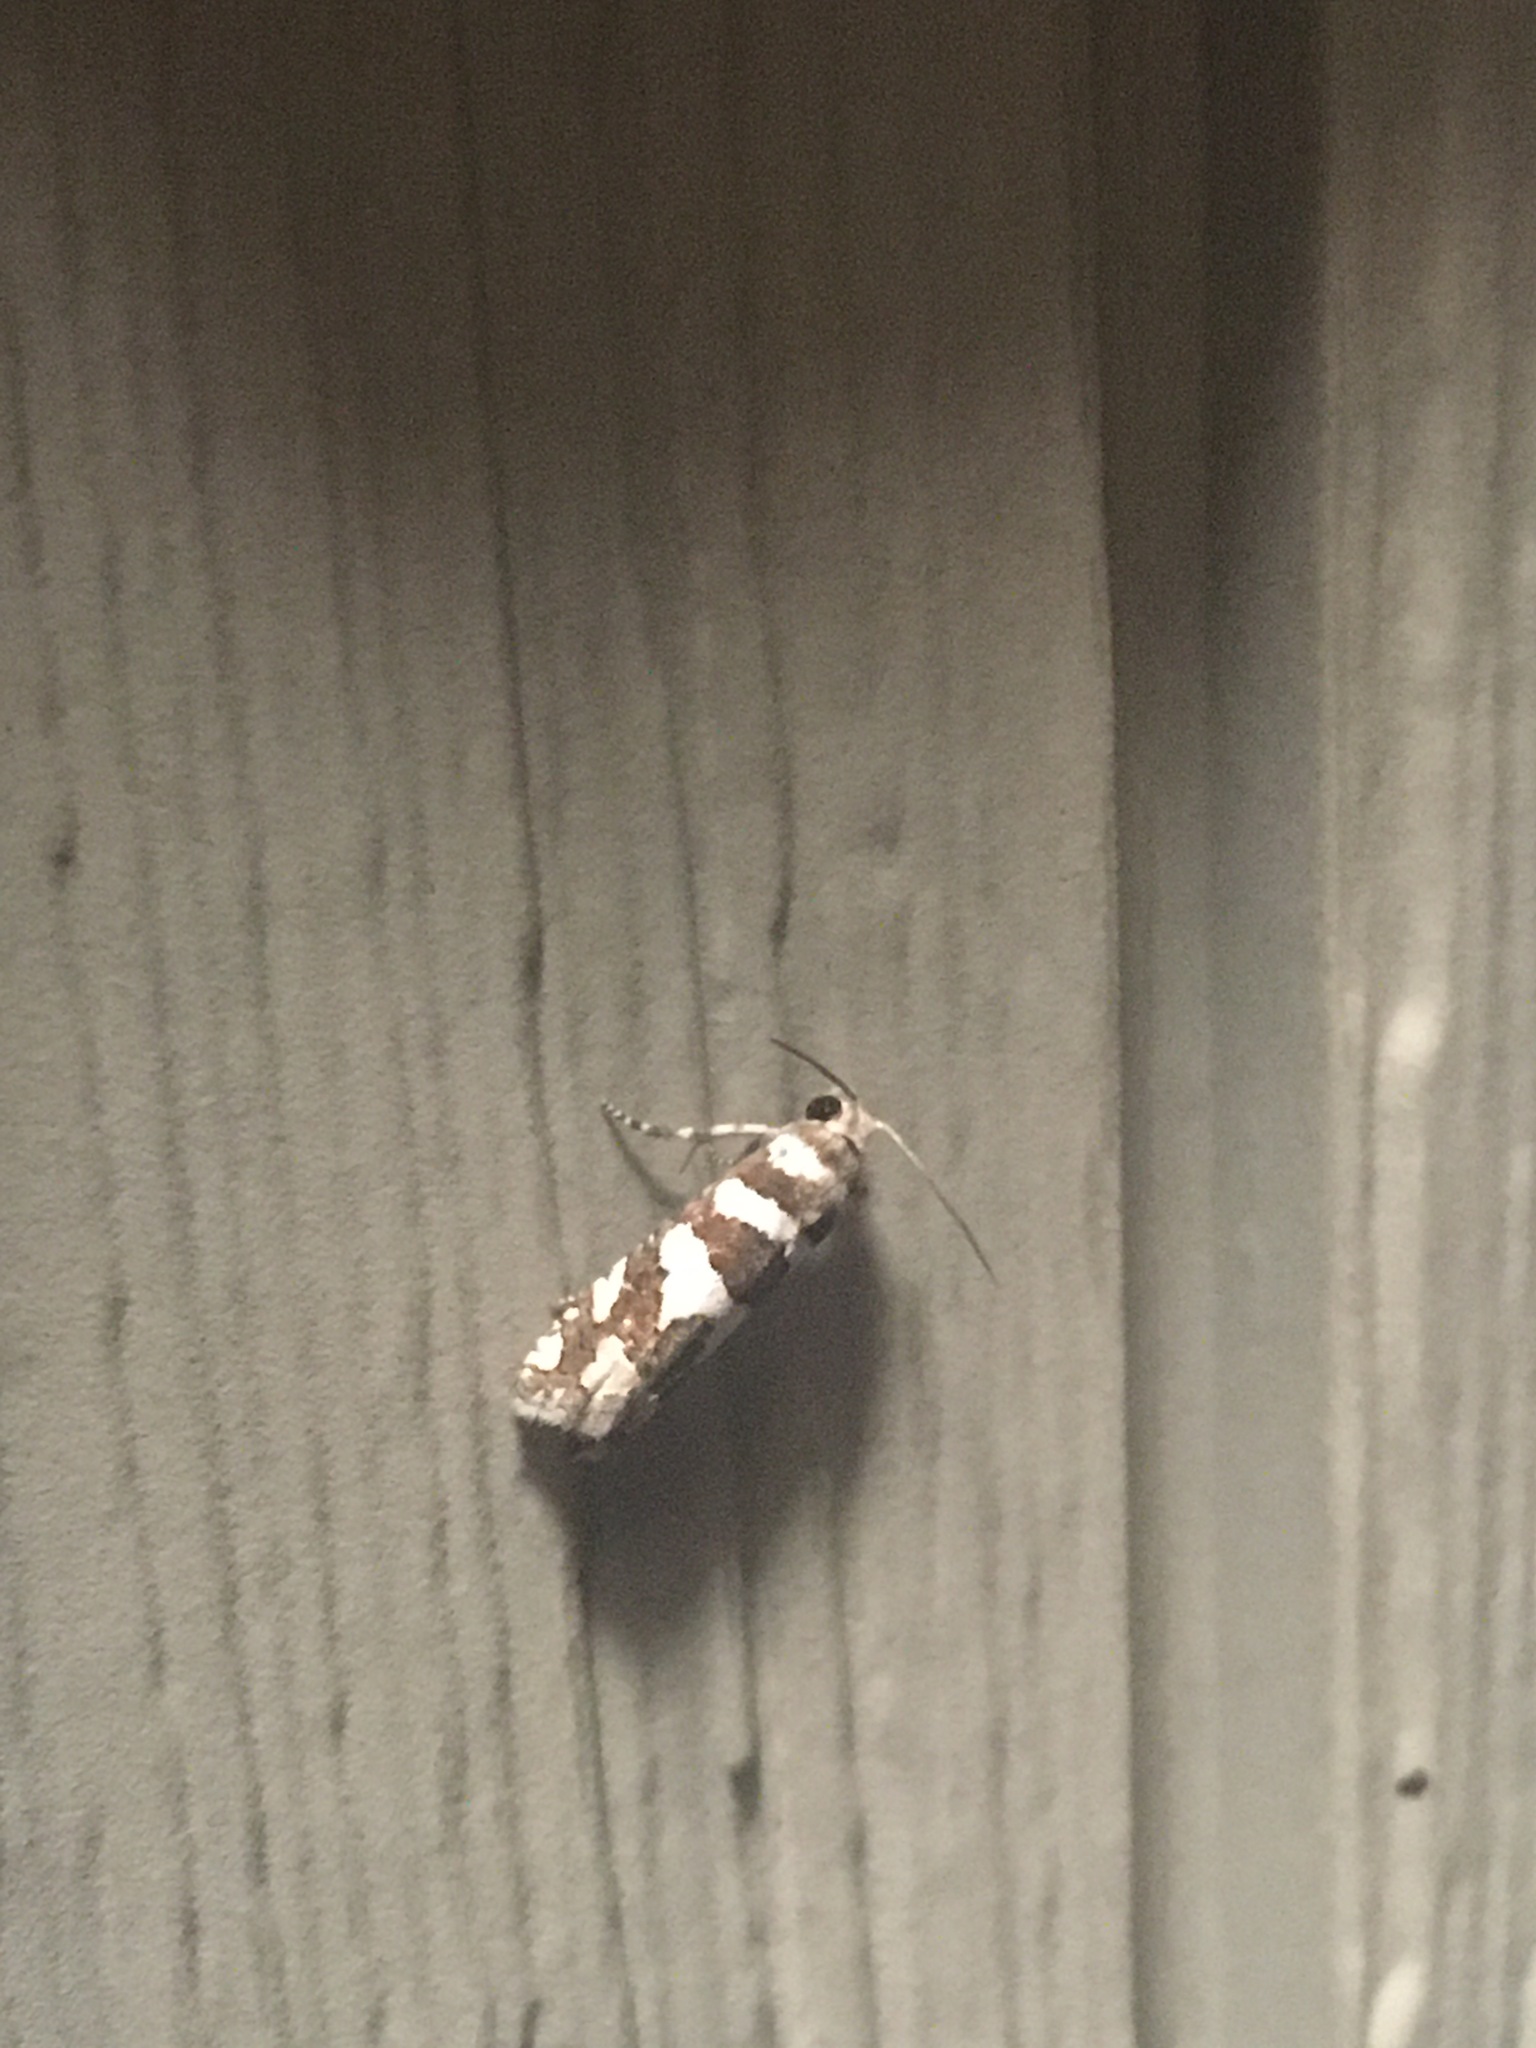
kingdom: Animalia
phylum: Arthropoda
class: Insecta
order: Lepidoptera
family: Tortricidae
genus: Pelochrista
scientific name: Pelochrista robinsonana
